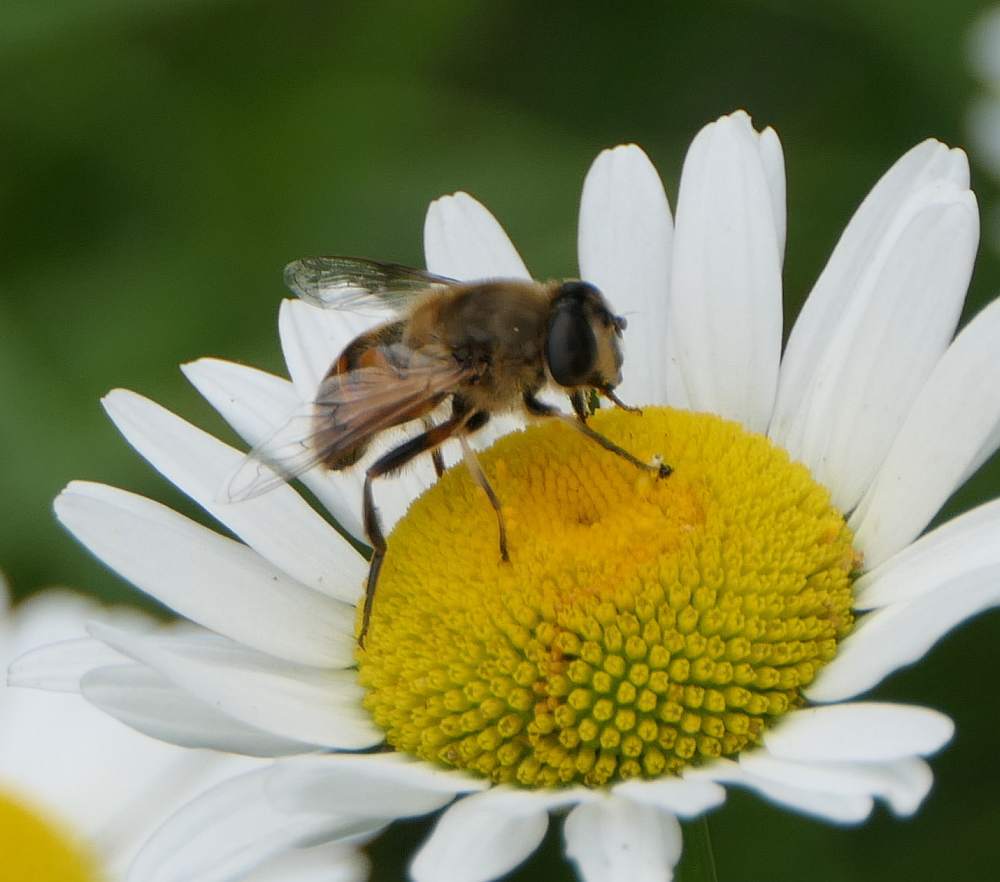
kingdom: Animalia
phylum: Arthropoda
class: Insecta
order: Diptera
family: Syrphidae
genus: Eristalis
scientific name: Eristalis tenax
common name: Drone fly
